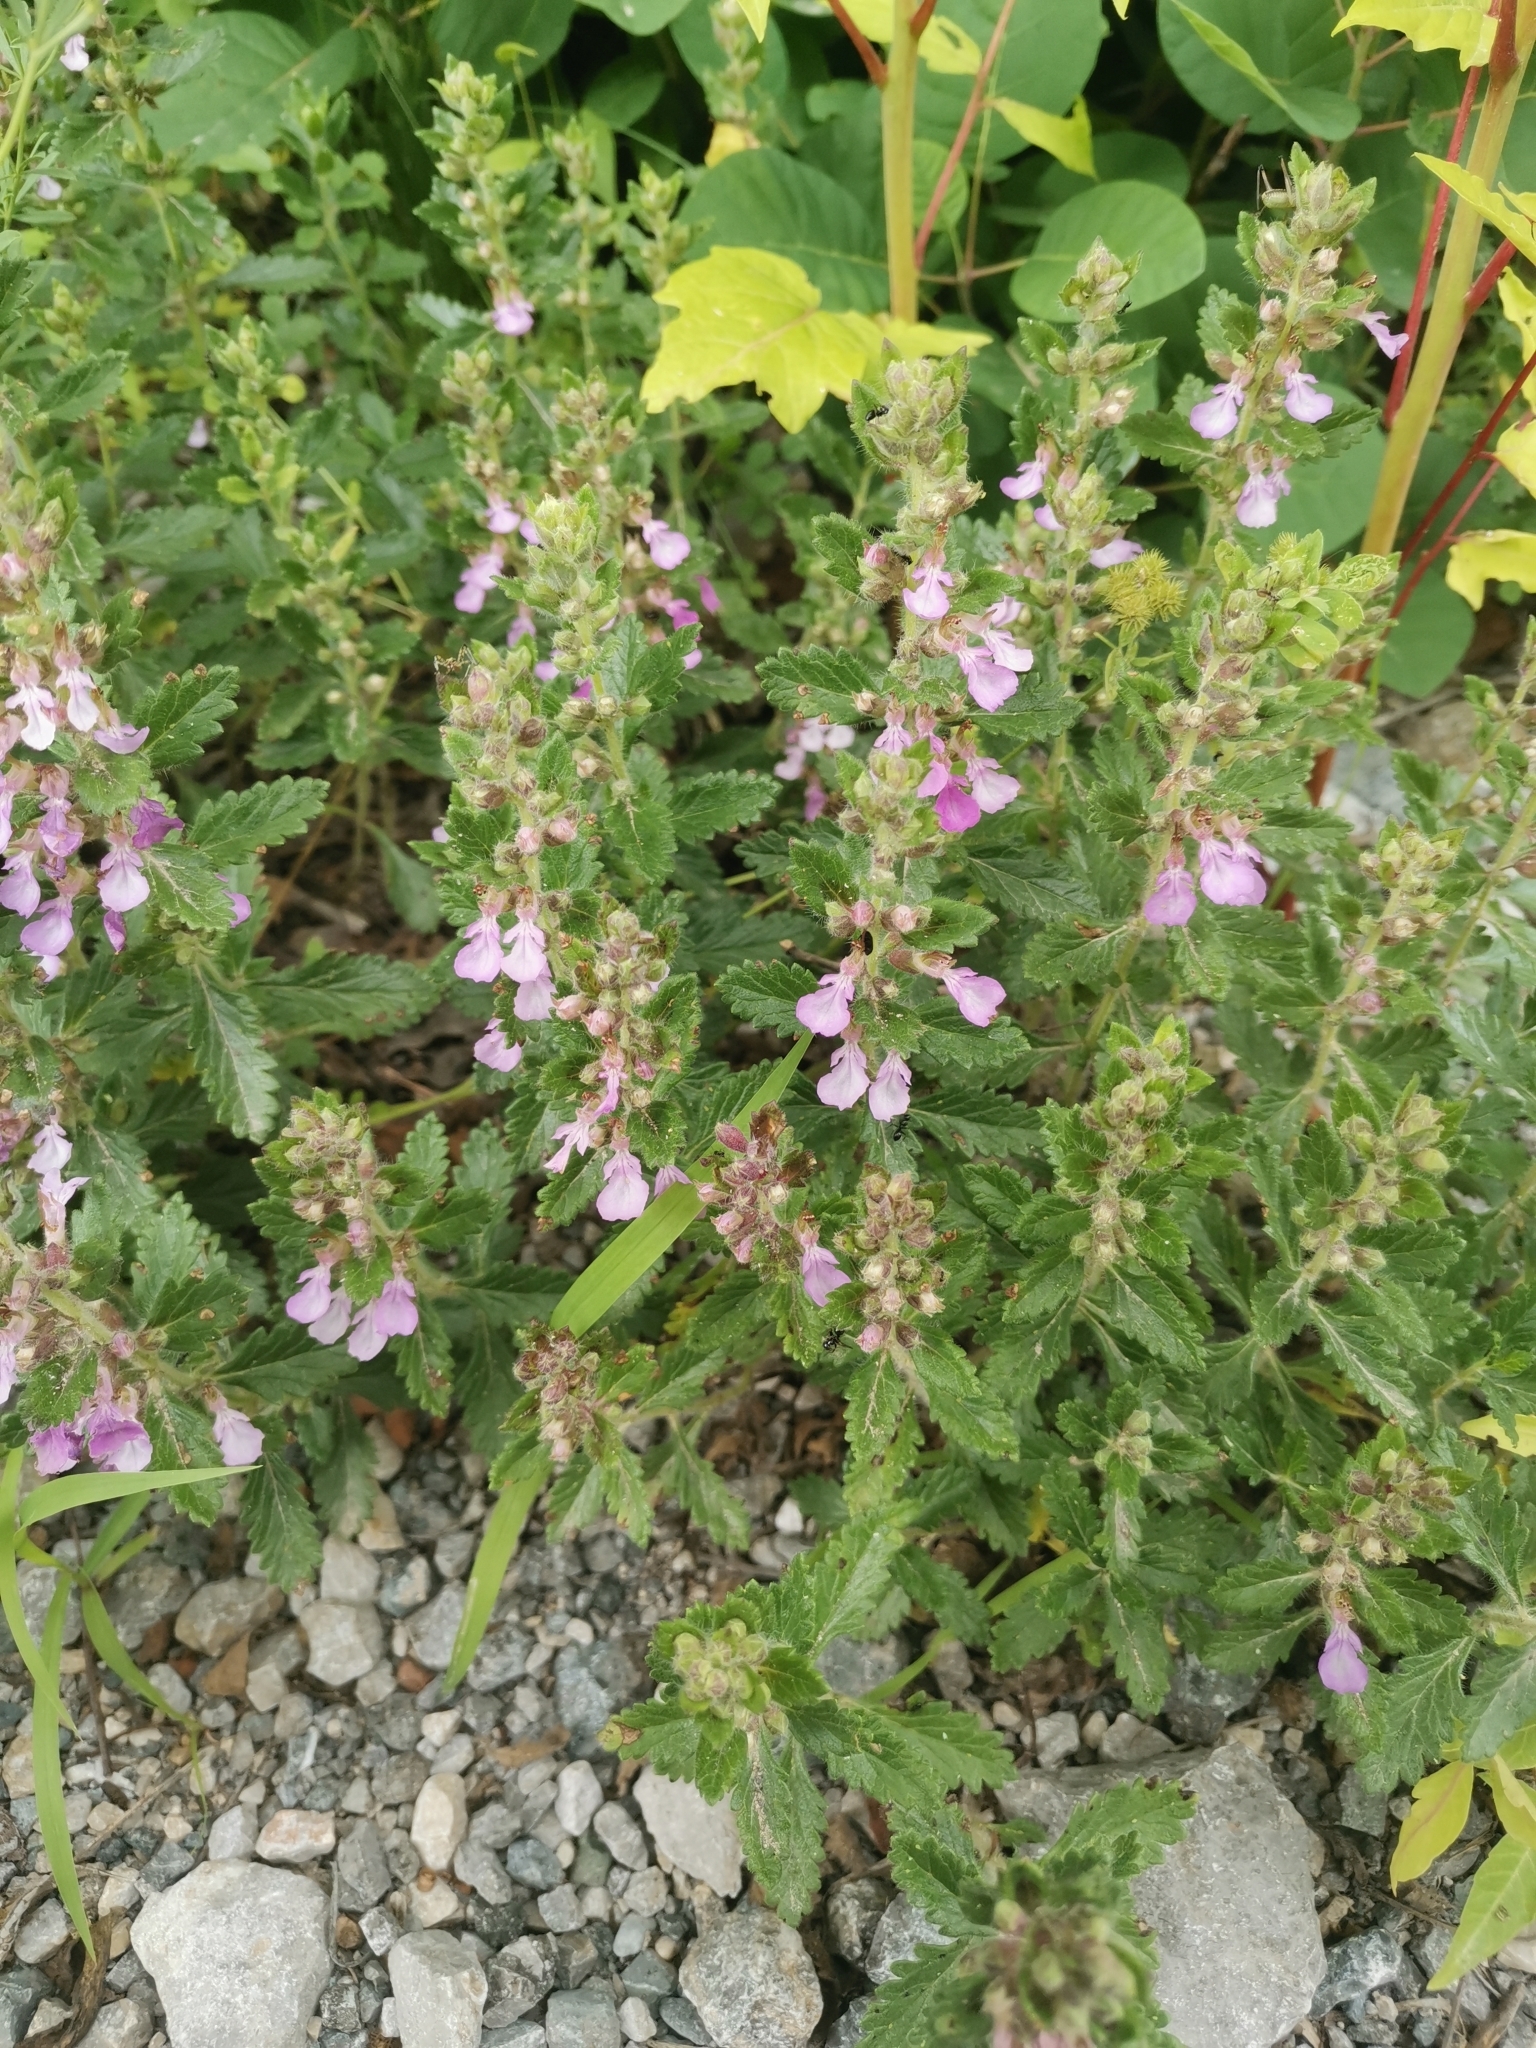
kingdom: Plantae
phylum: Tracheophyta
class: Magnoliopsida
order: Lamiales
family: Lamiaceae
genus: Teucrium
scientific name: Teucrium chamaedrys
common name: Wall germander
